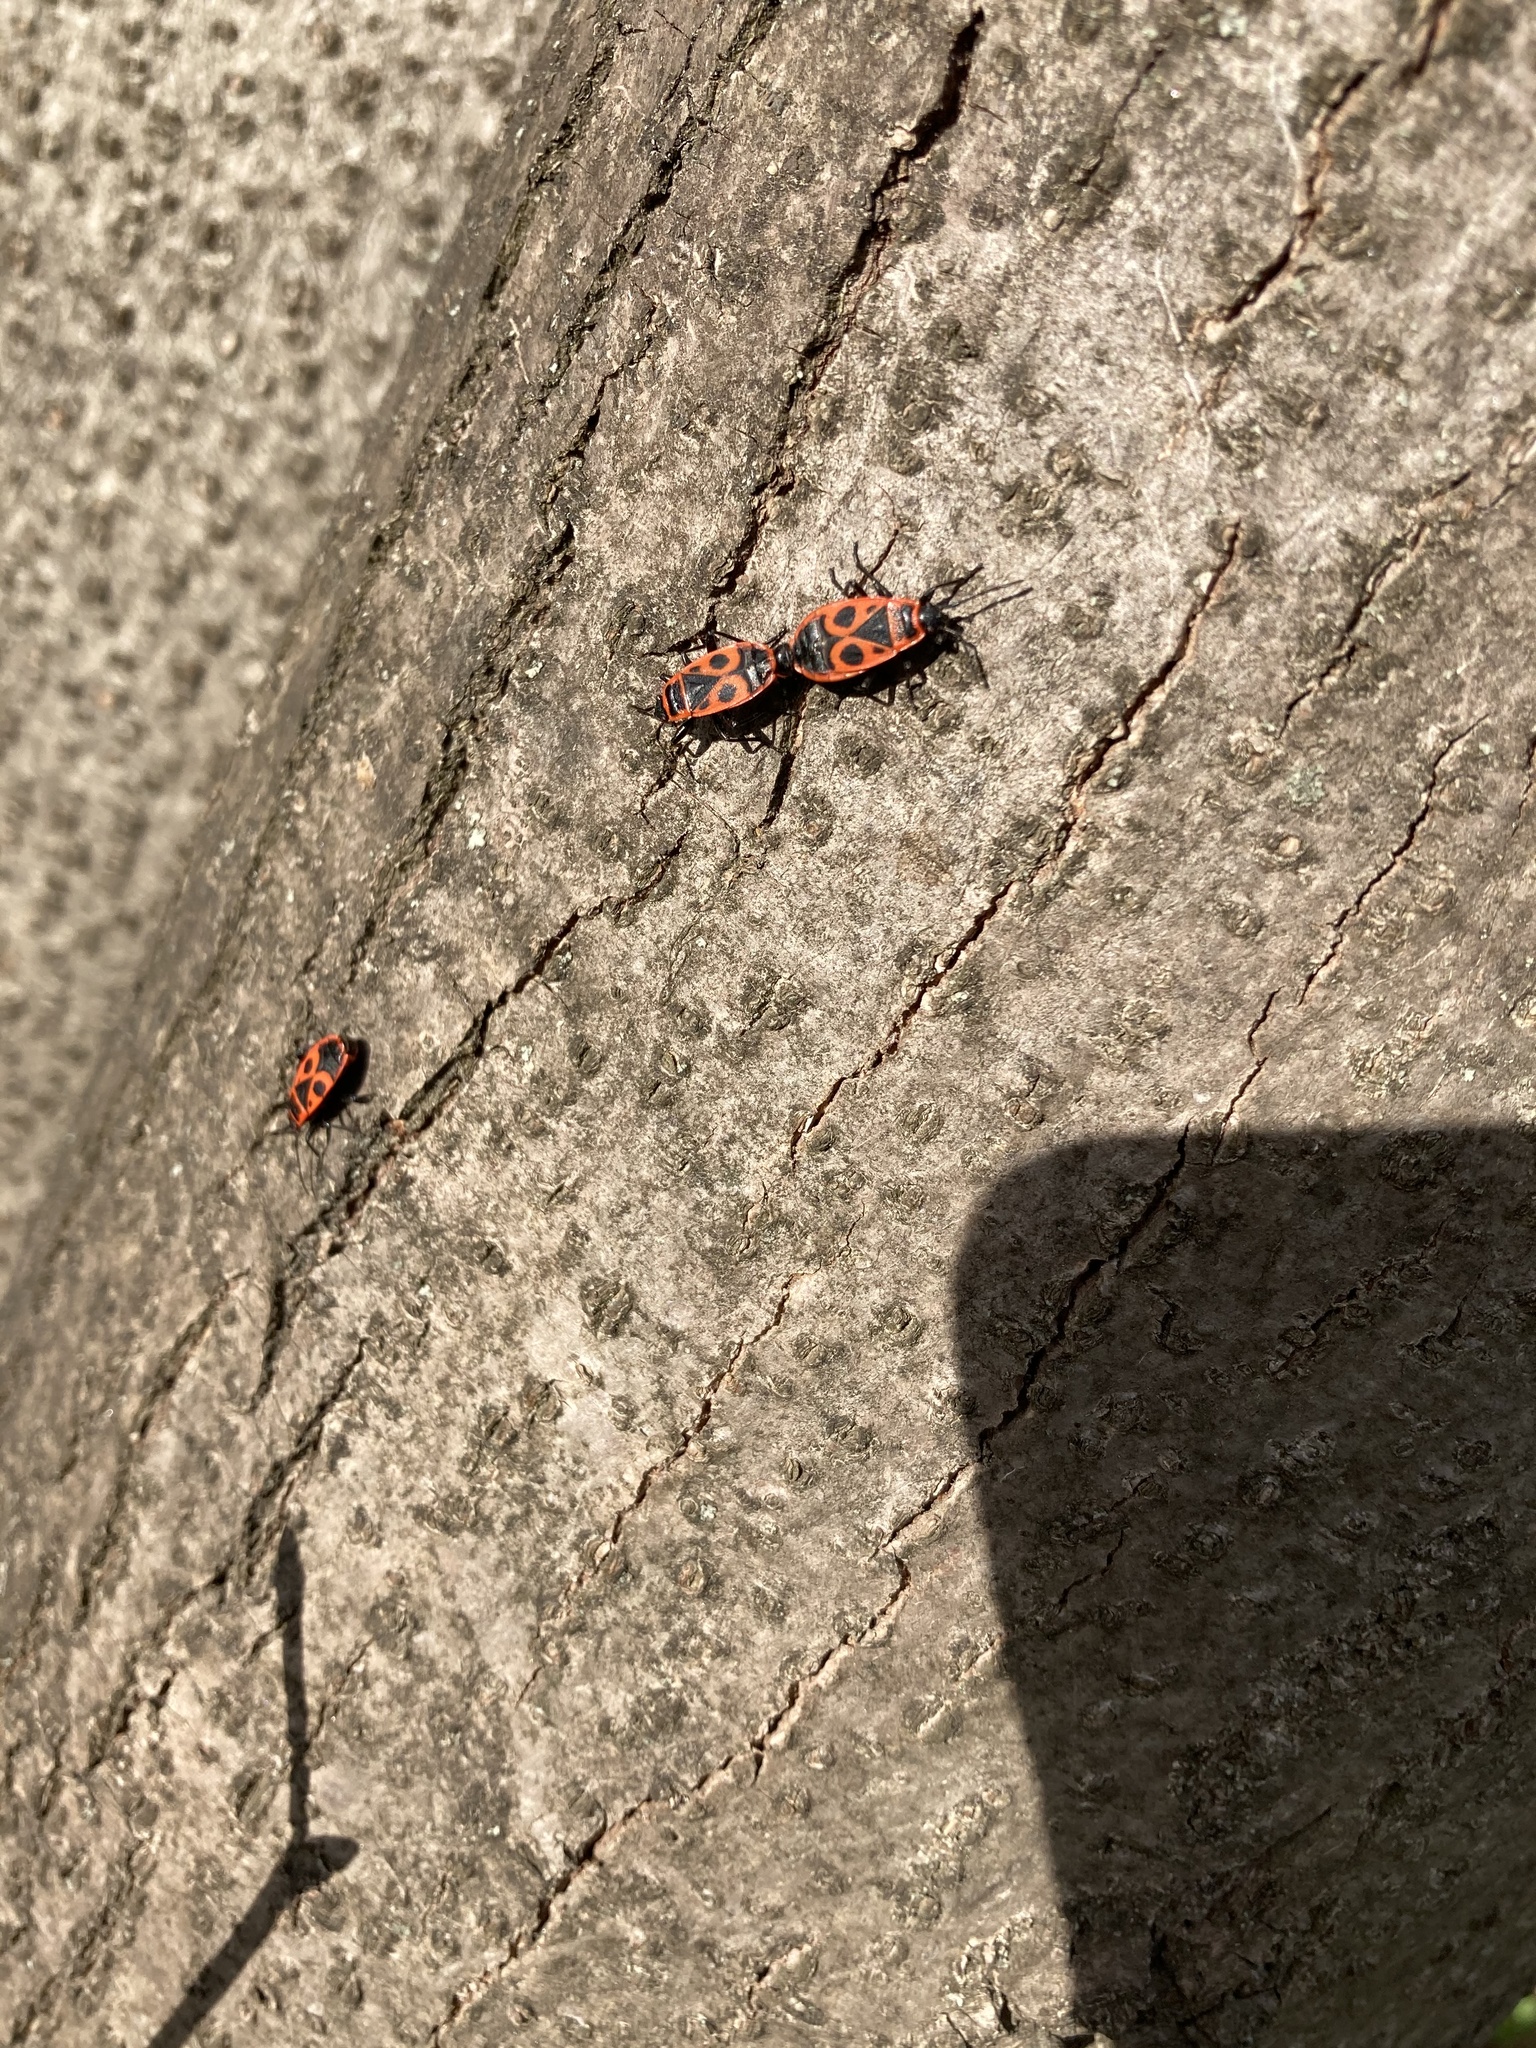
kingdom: Animalia
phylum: Arthropoda
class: Insecta
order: Hemiptera
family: Pyrrhocoridae
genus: Pyrrhocoris
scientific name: Pyrrhocoris apterus
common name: Firebug
